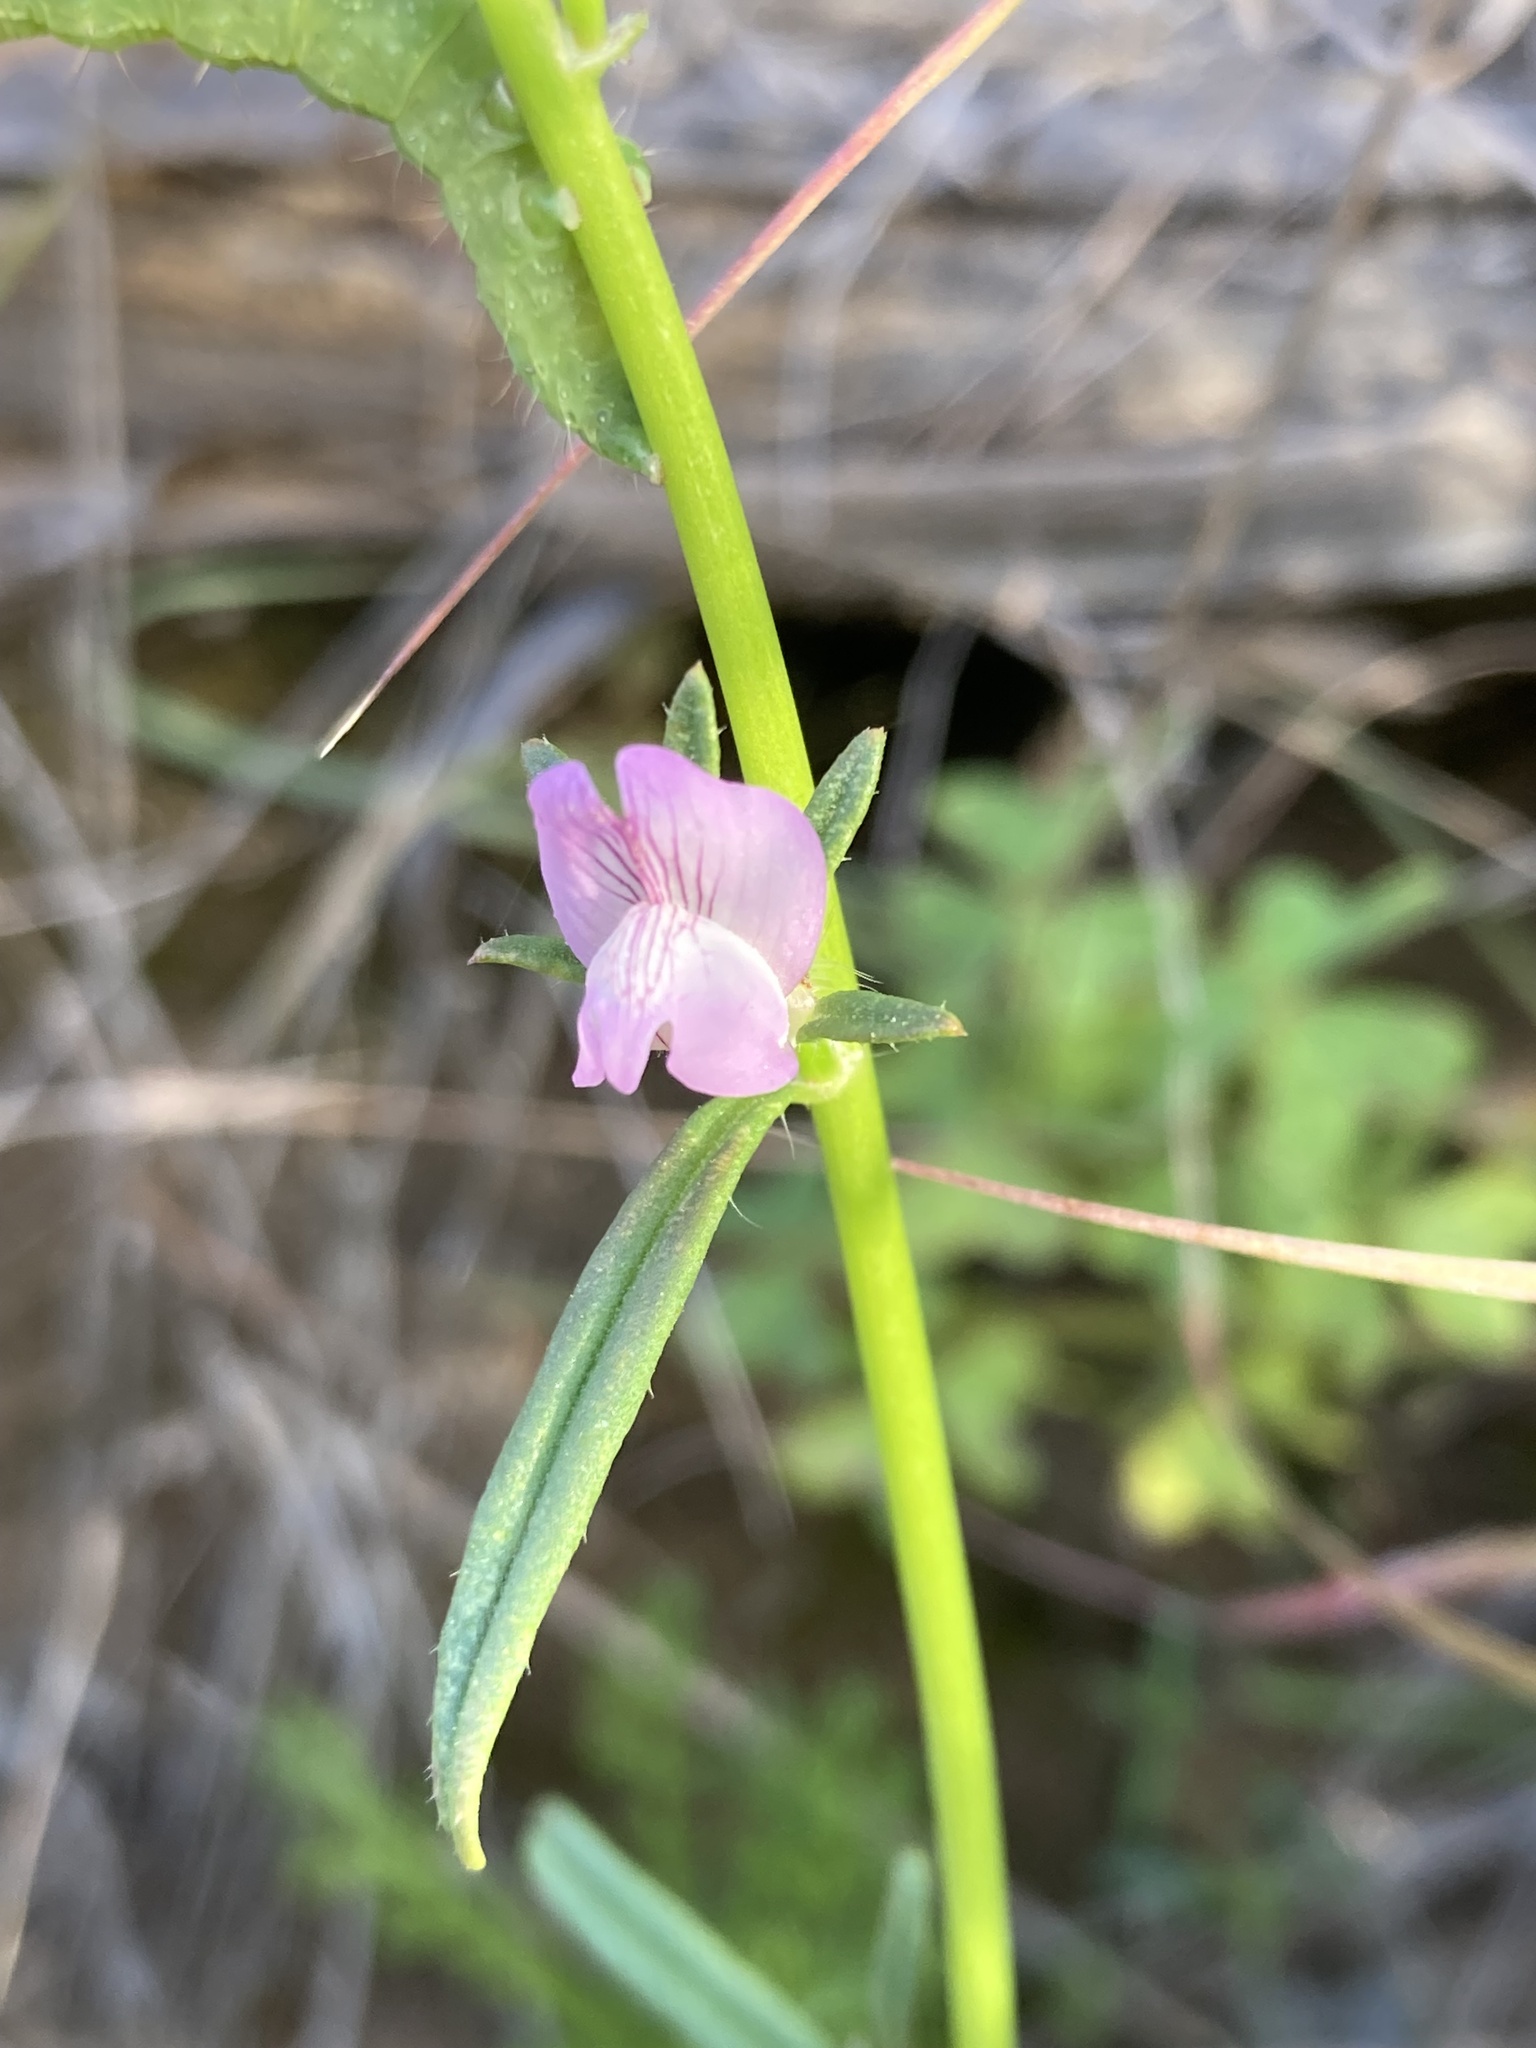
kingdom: Plantae
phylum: Tracheophyta
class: Magnoliopsida
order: Lamiales
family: Plantaginaceae
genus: Misopates
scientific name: Misopates orontium
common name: Weasel's-snout
